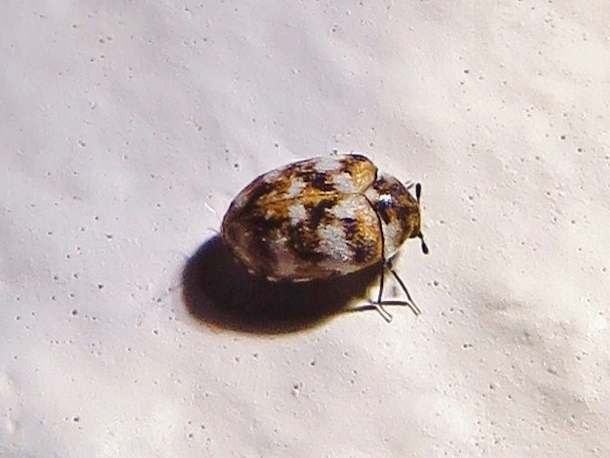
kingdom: Animalia
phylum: Arthropoda
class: Insecta
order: Coleoptera
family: Dermestidae
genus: Anthrenus
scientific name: Anthrenus verbasci
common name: Varied carpet beetle
